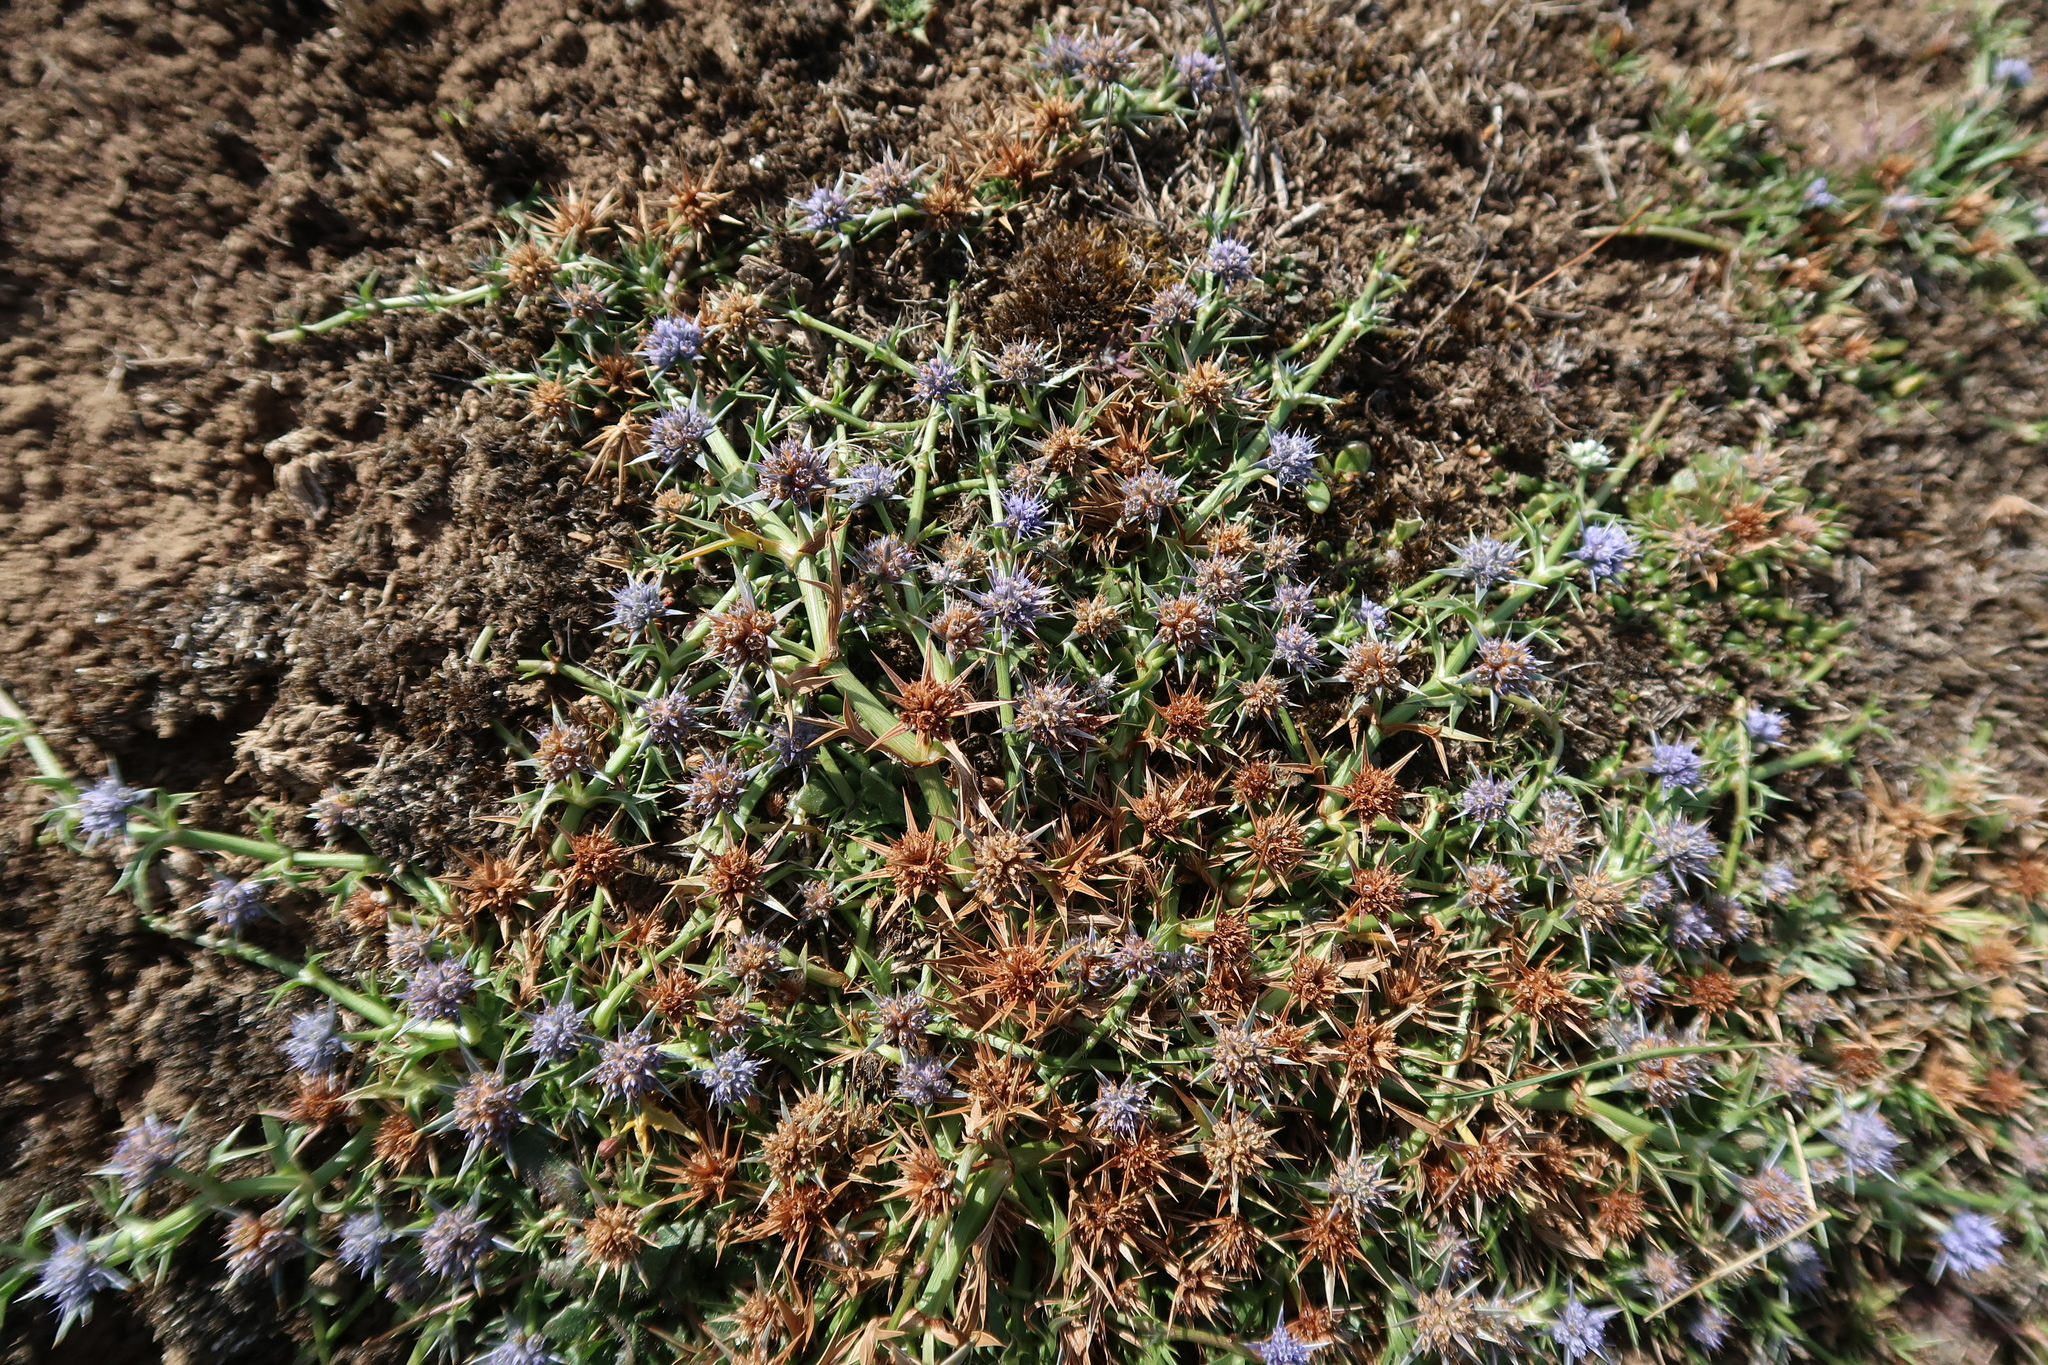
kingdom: Plantae
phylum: Tracheophyta
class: Magnoliopsida
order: Apiales
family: Apiaceae
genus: Eryngium
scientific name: Eryngium vesiculosum
